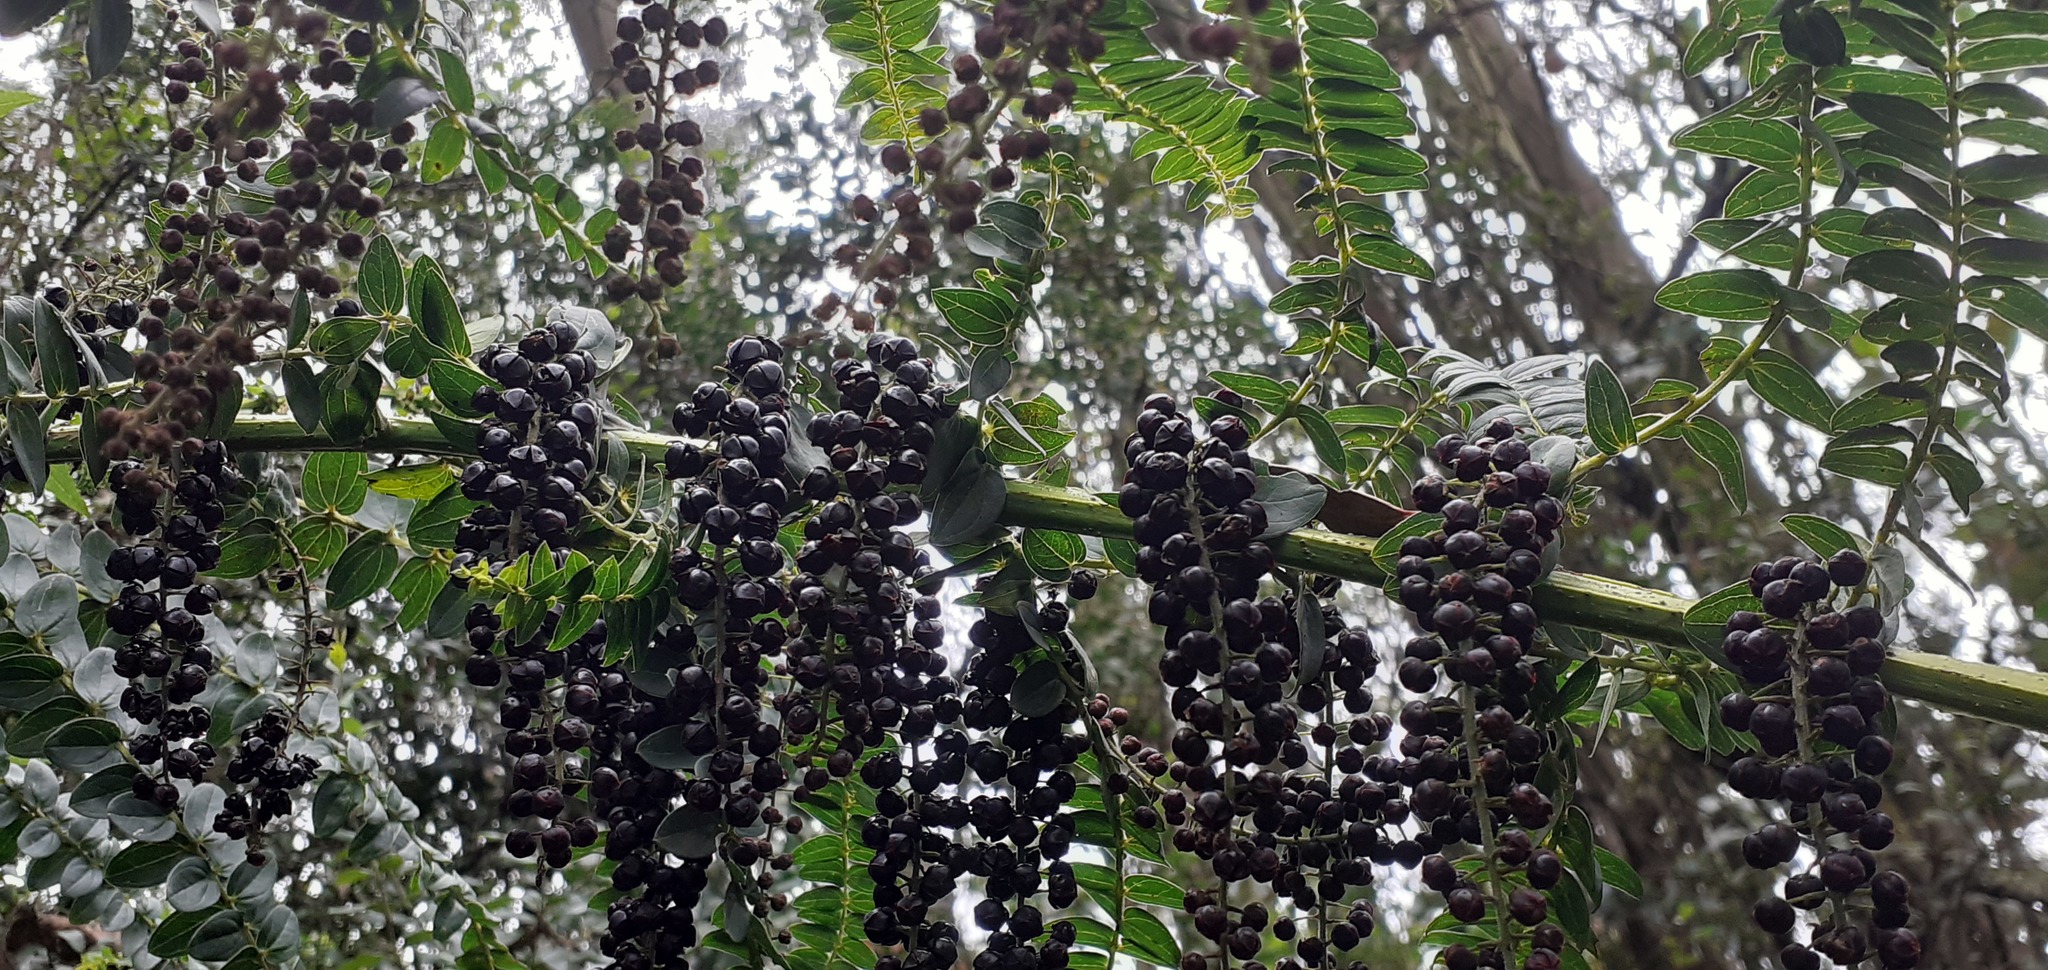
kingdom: Plantae
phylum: Tracheophyta
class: Magnoliopsida
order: Cucurbitales
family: Coriariaceae
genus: Coriaria
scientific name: Coriaria ruscifolia
